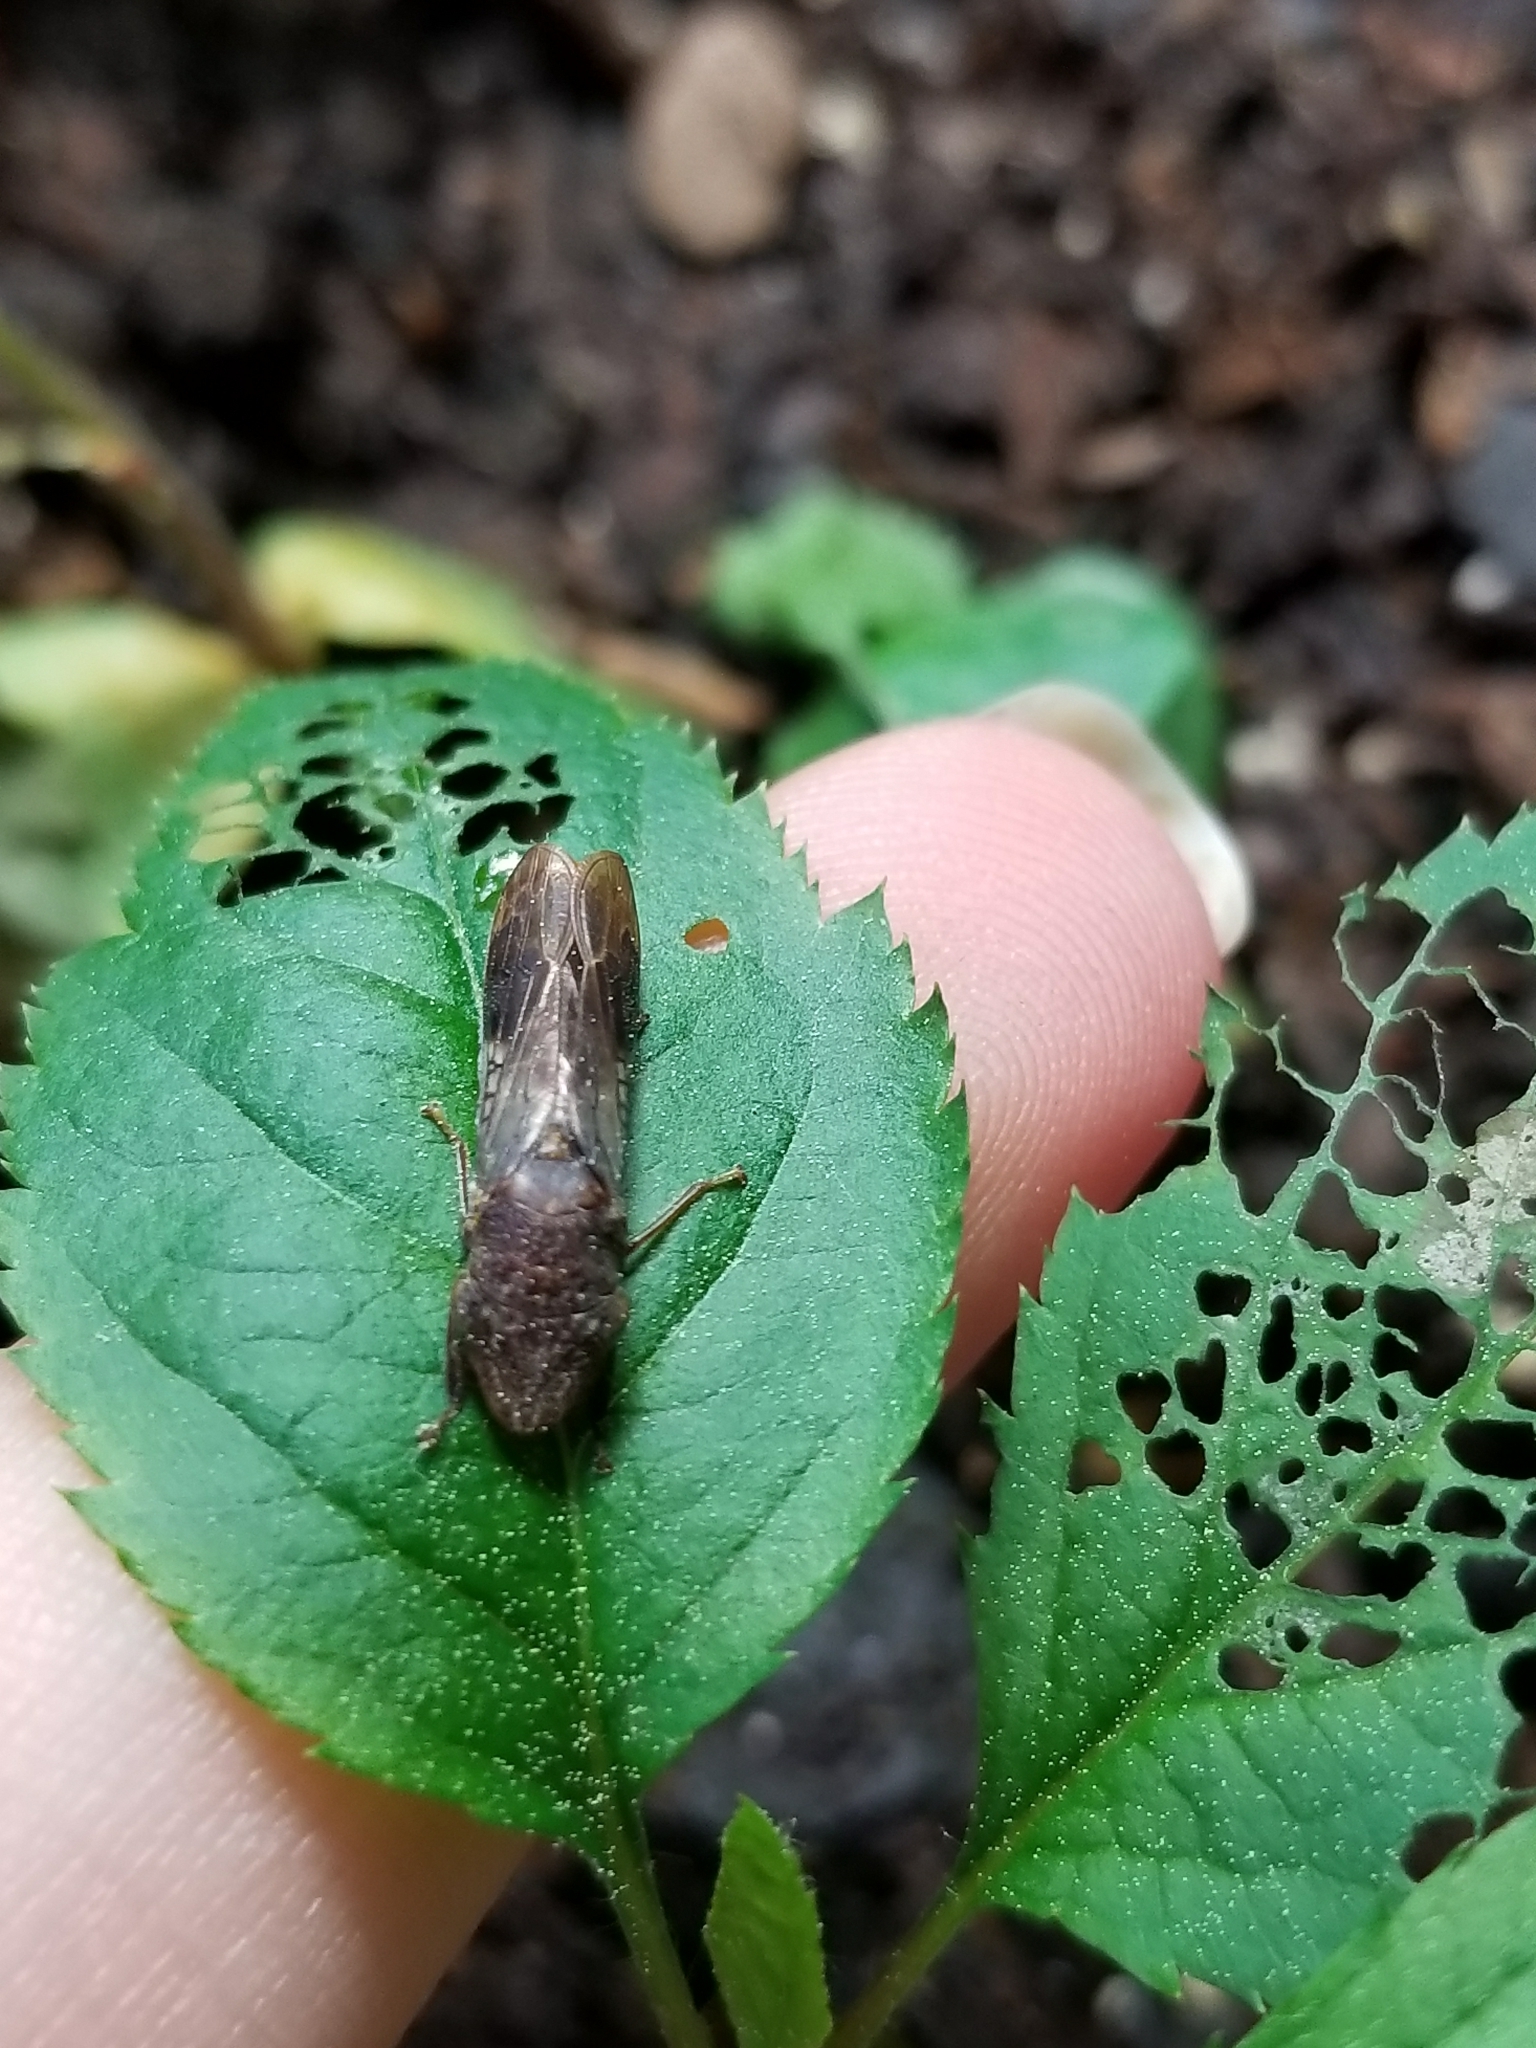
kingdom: Animalia
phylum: Arthropoda
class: Insecta
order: Hemiptera
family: Cicadellidae
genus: Homalodisca
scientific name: Homalodisca vitripennis
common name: Glassy-winged sharpshooter
